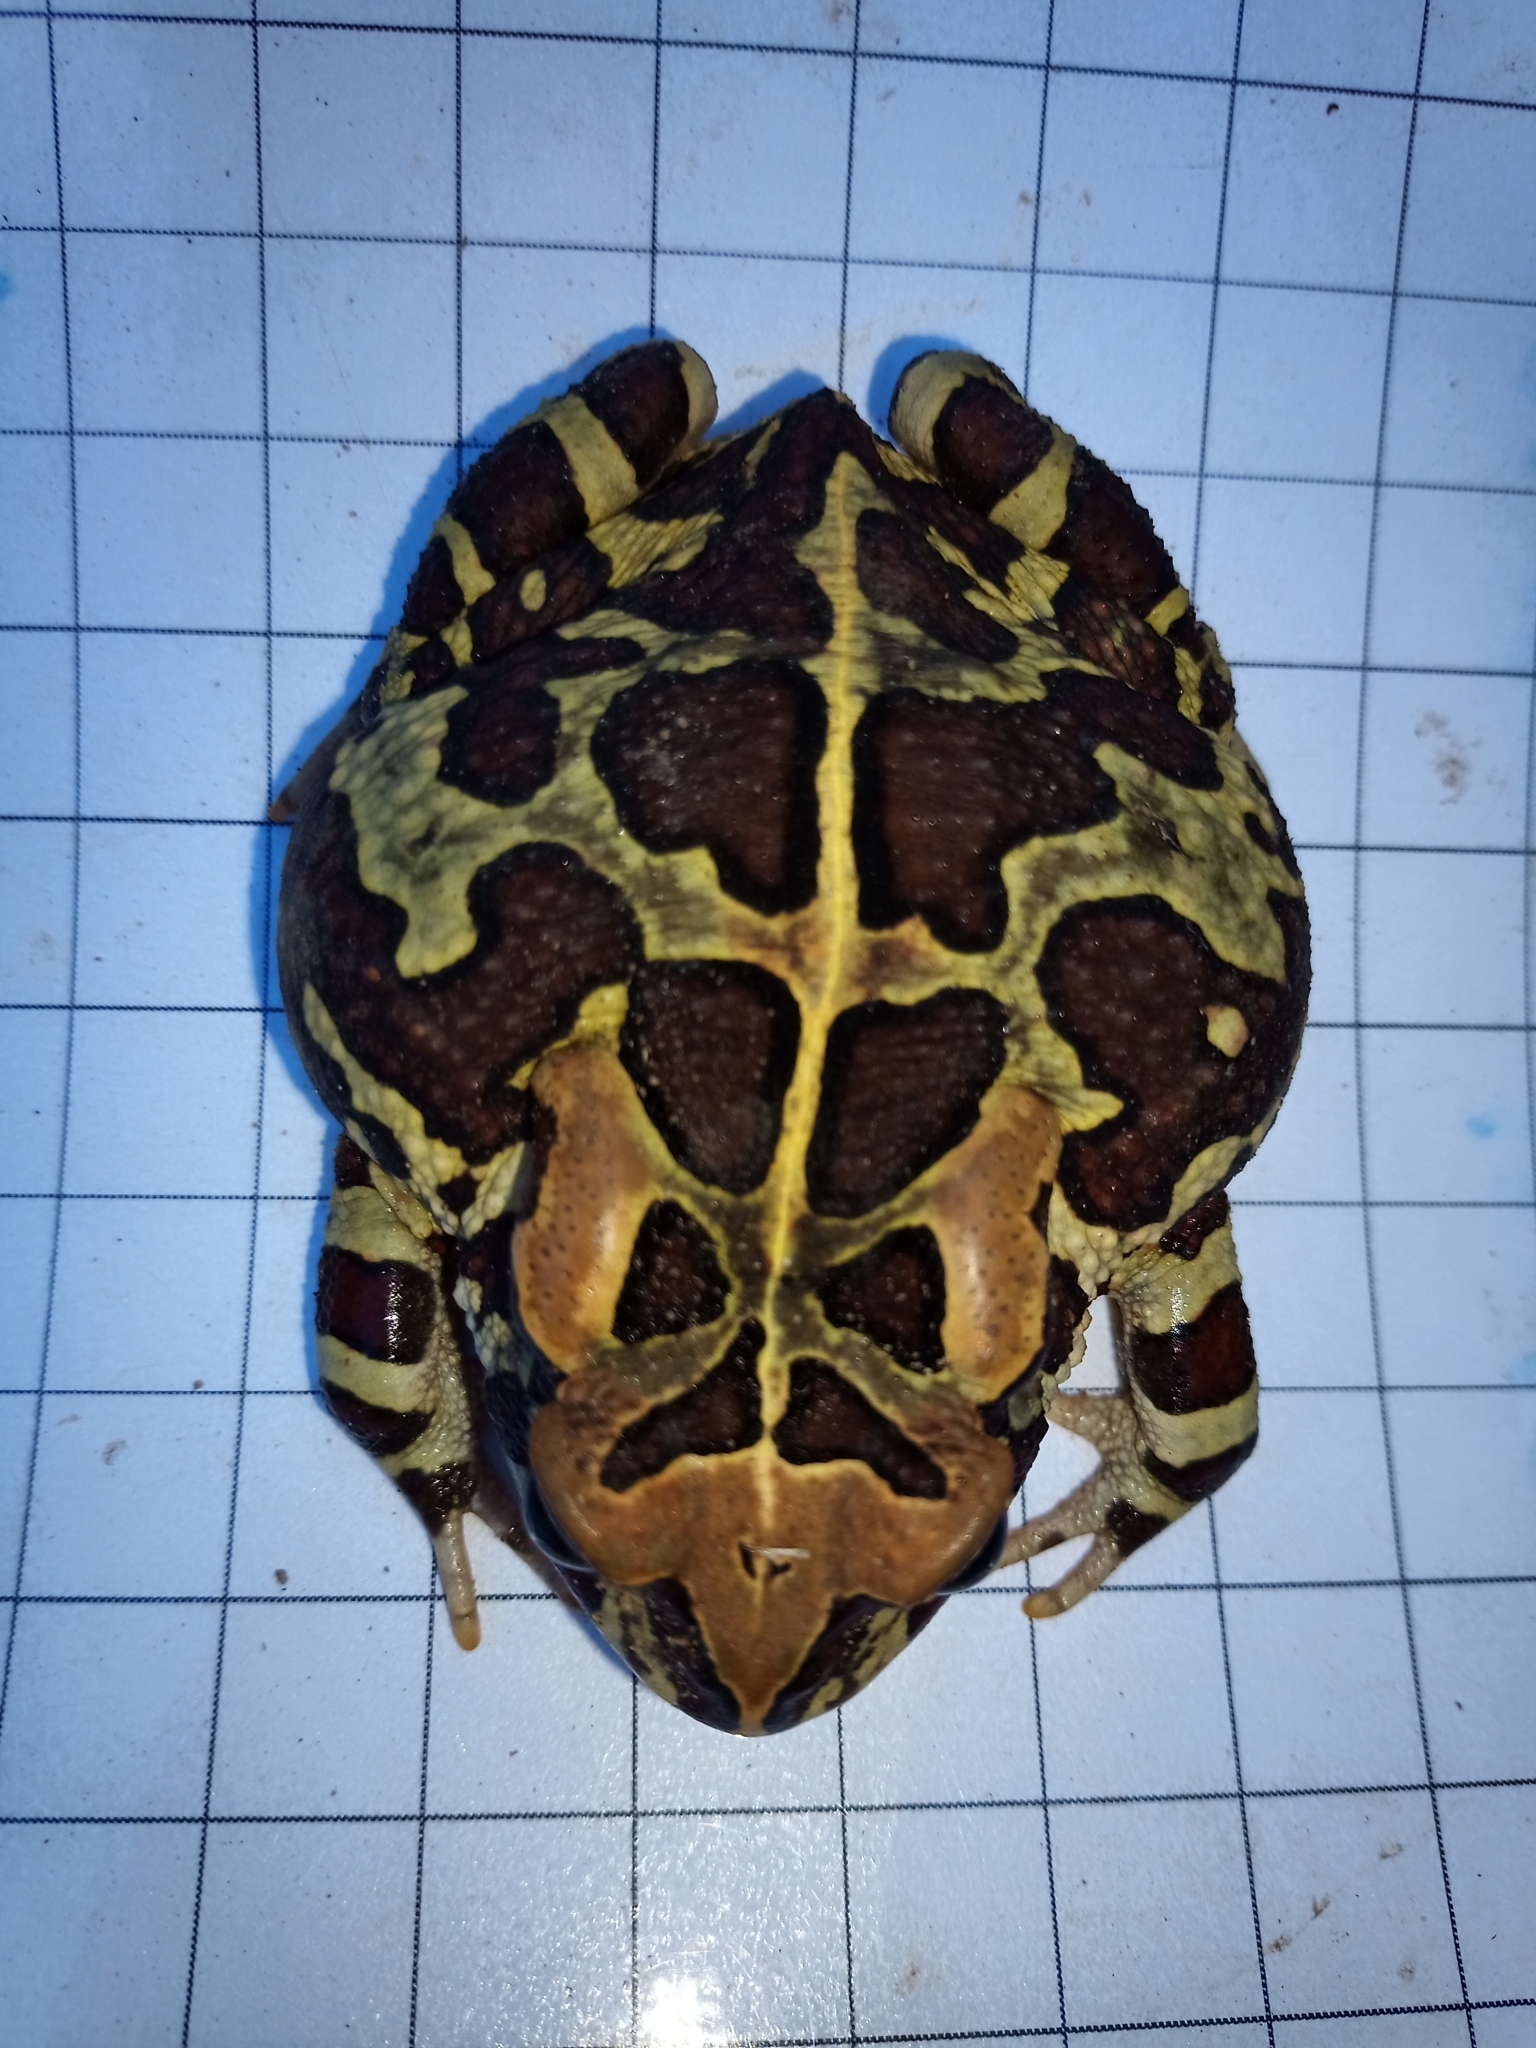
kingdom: Animalia
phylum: Chordata
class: Amphibia
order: Anura
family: Bufonidae
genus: Sclerophrys
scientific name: Sclerophrys pantherina
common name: Panther toad
